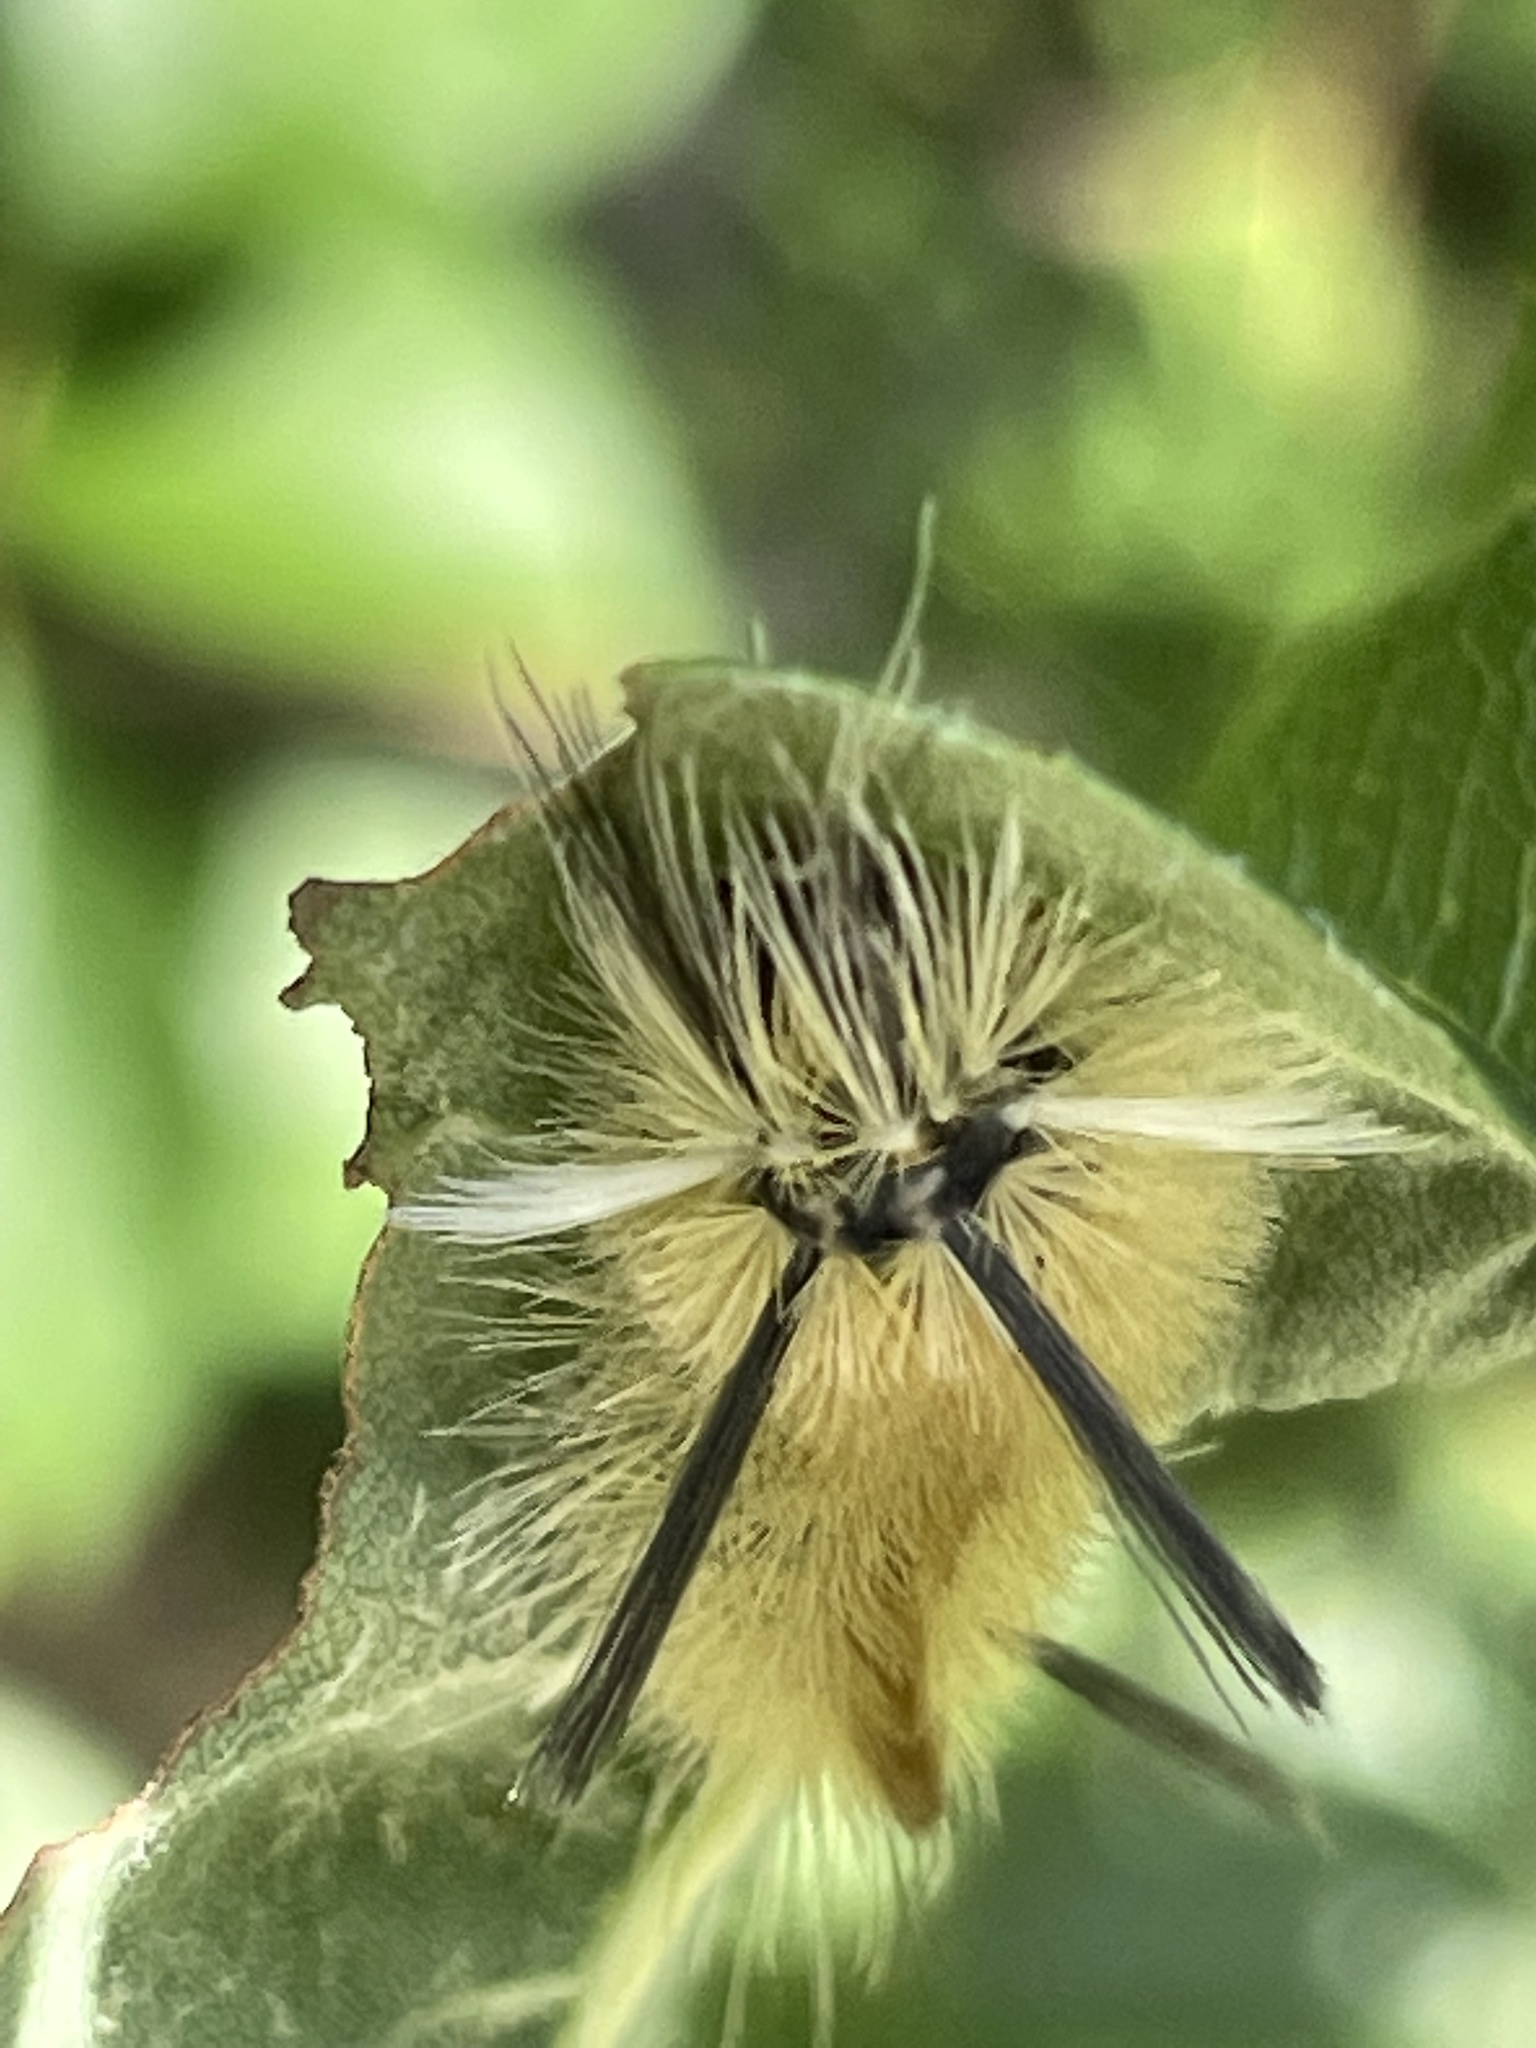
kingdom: Animalia
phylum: Arthropoda
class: Insecta
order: Lepidoptera
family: Erebidae
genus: Halysidota
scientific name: Halysidota tessellaris
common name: Banded tussock moth
